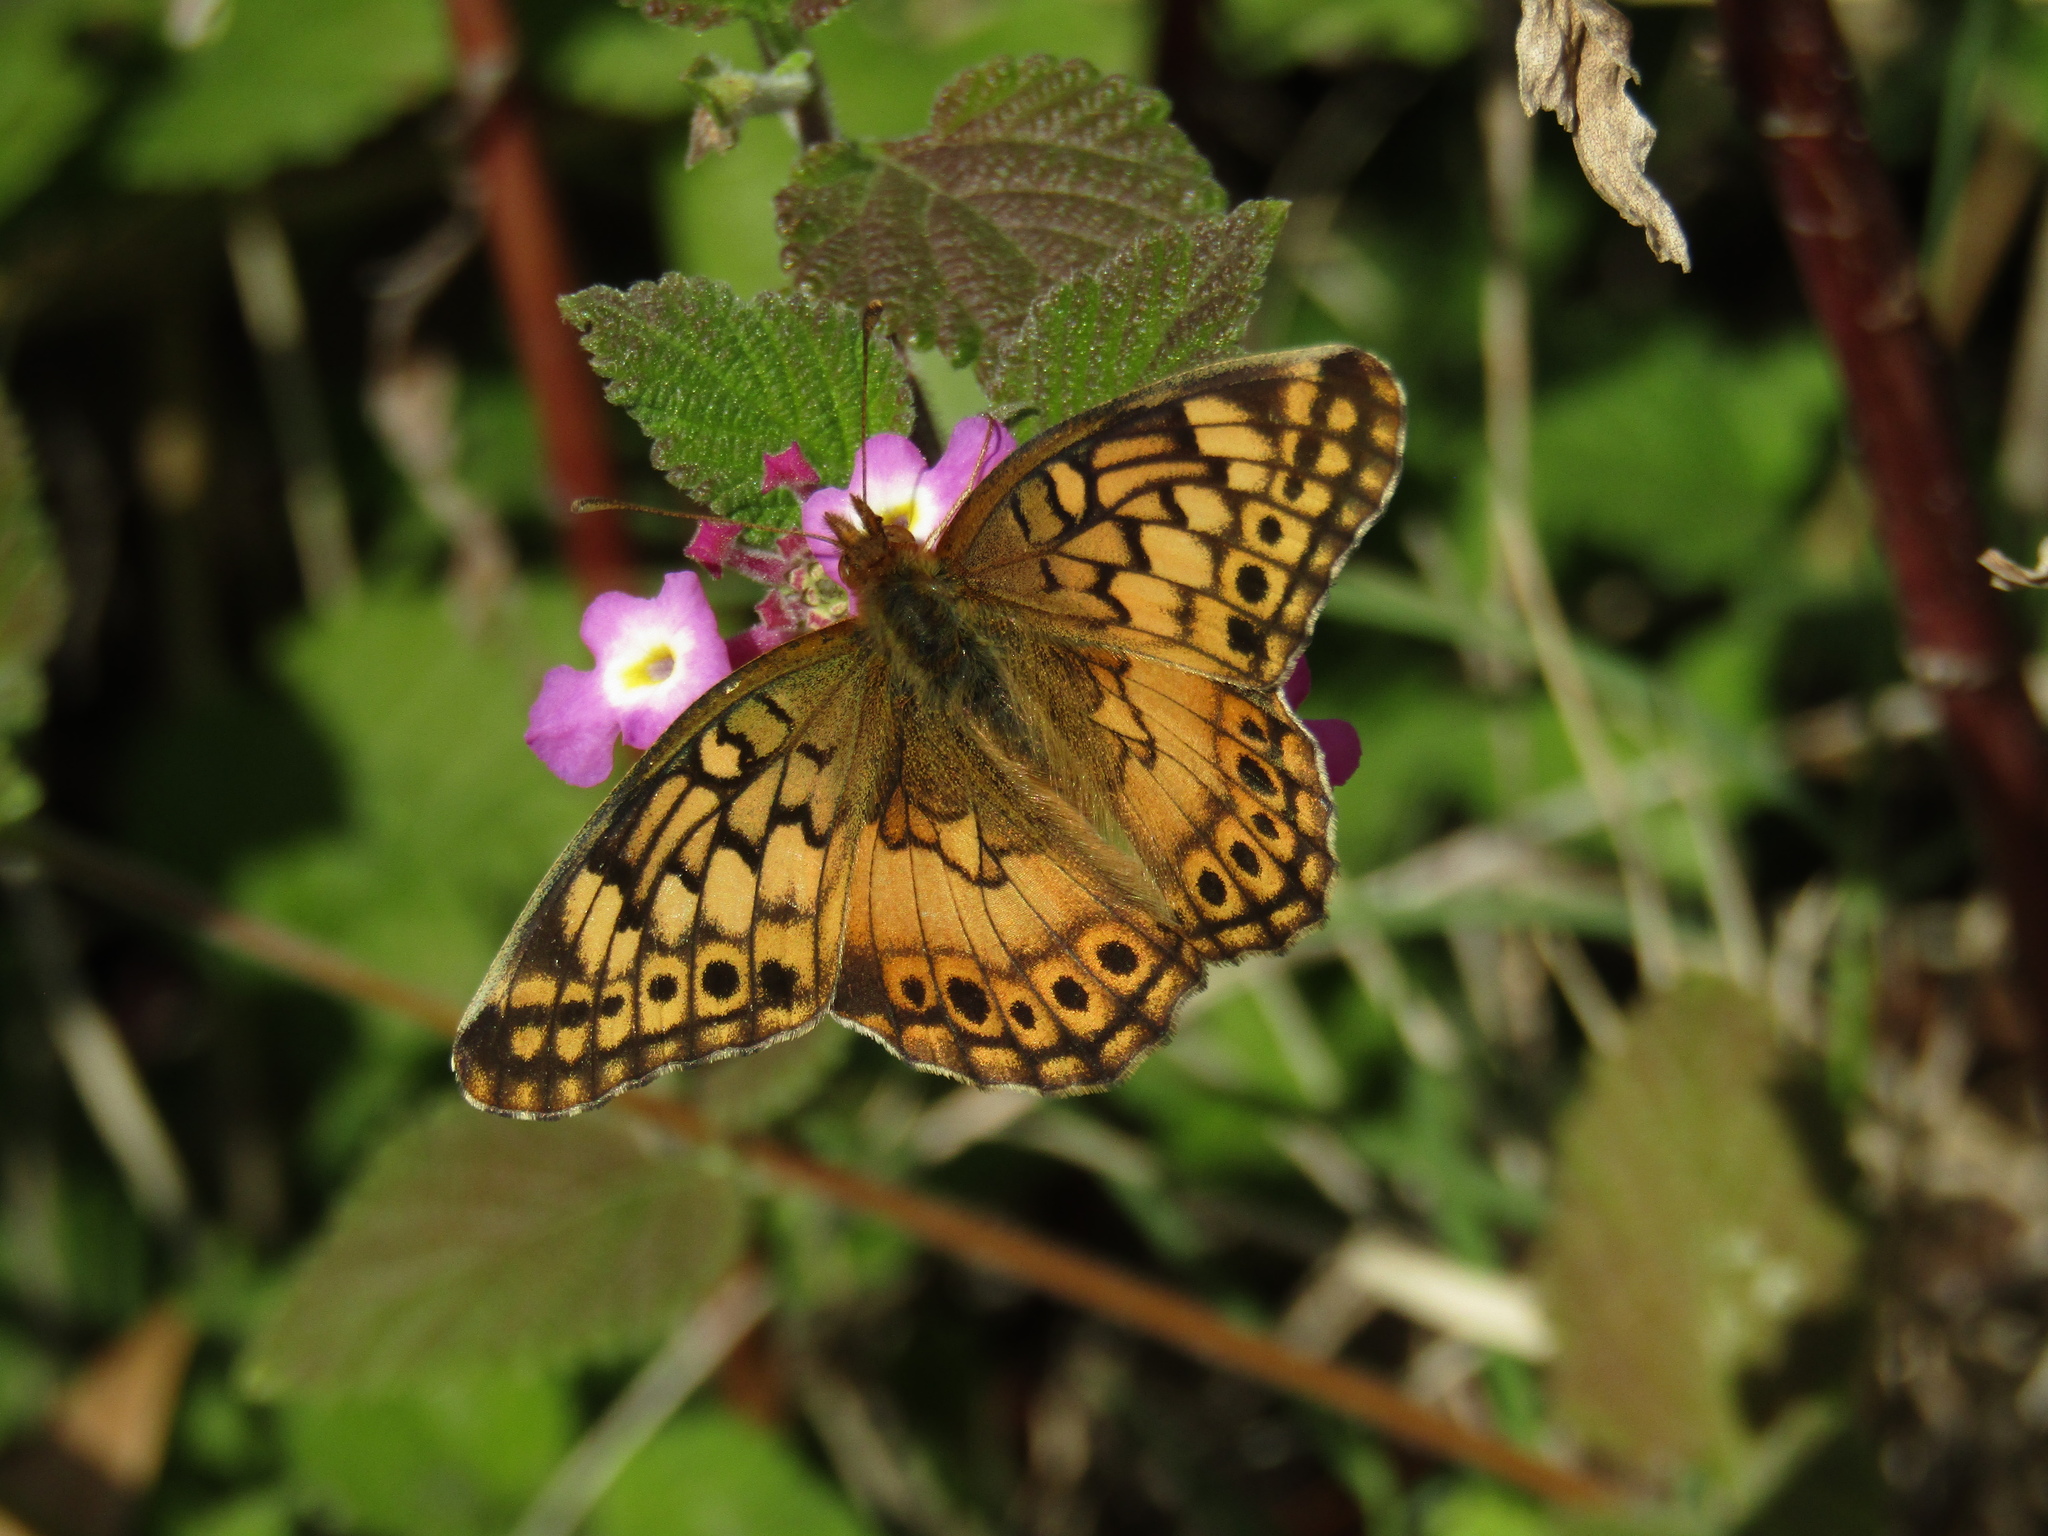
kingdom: Animalia
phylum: Arthropoda
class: Insecta
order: Lepidoptera
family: Nymphalidae
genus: Euptoieta
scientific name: Euptoieta hortensia
